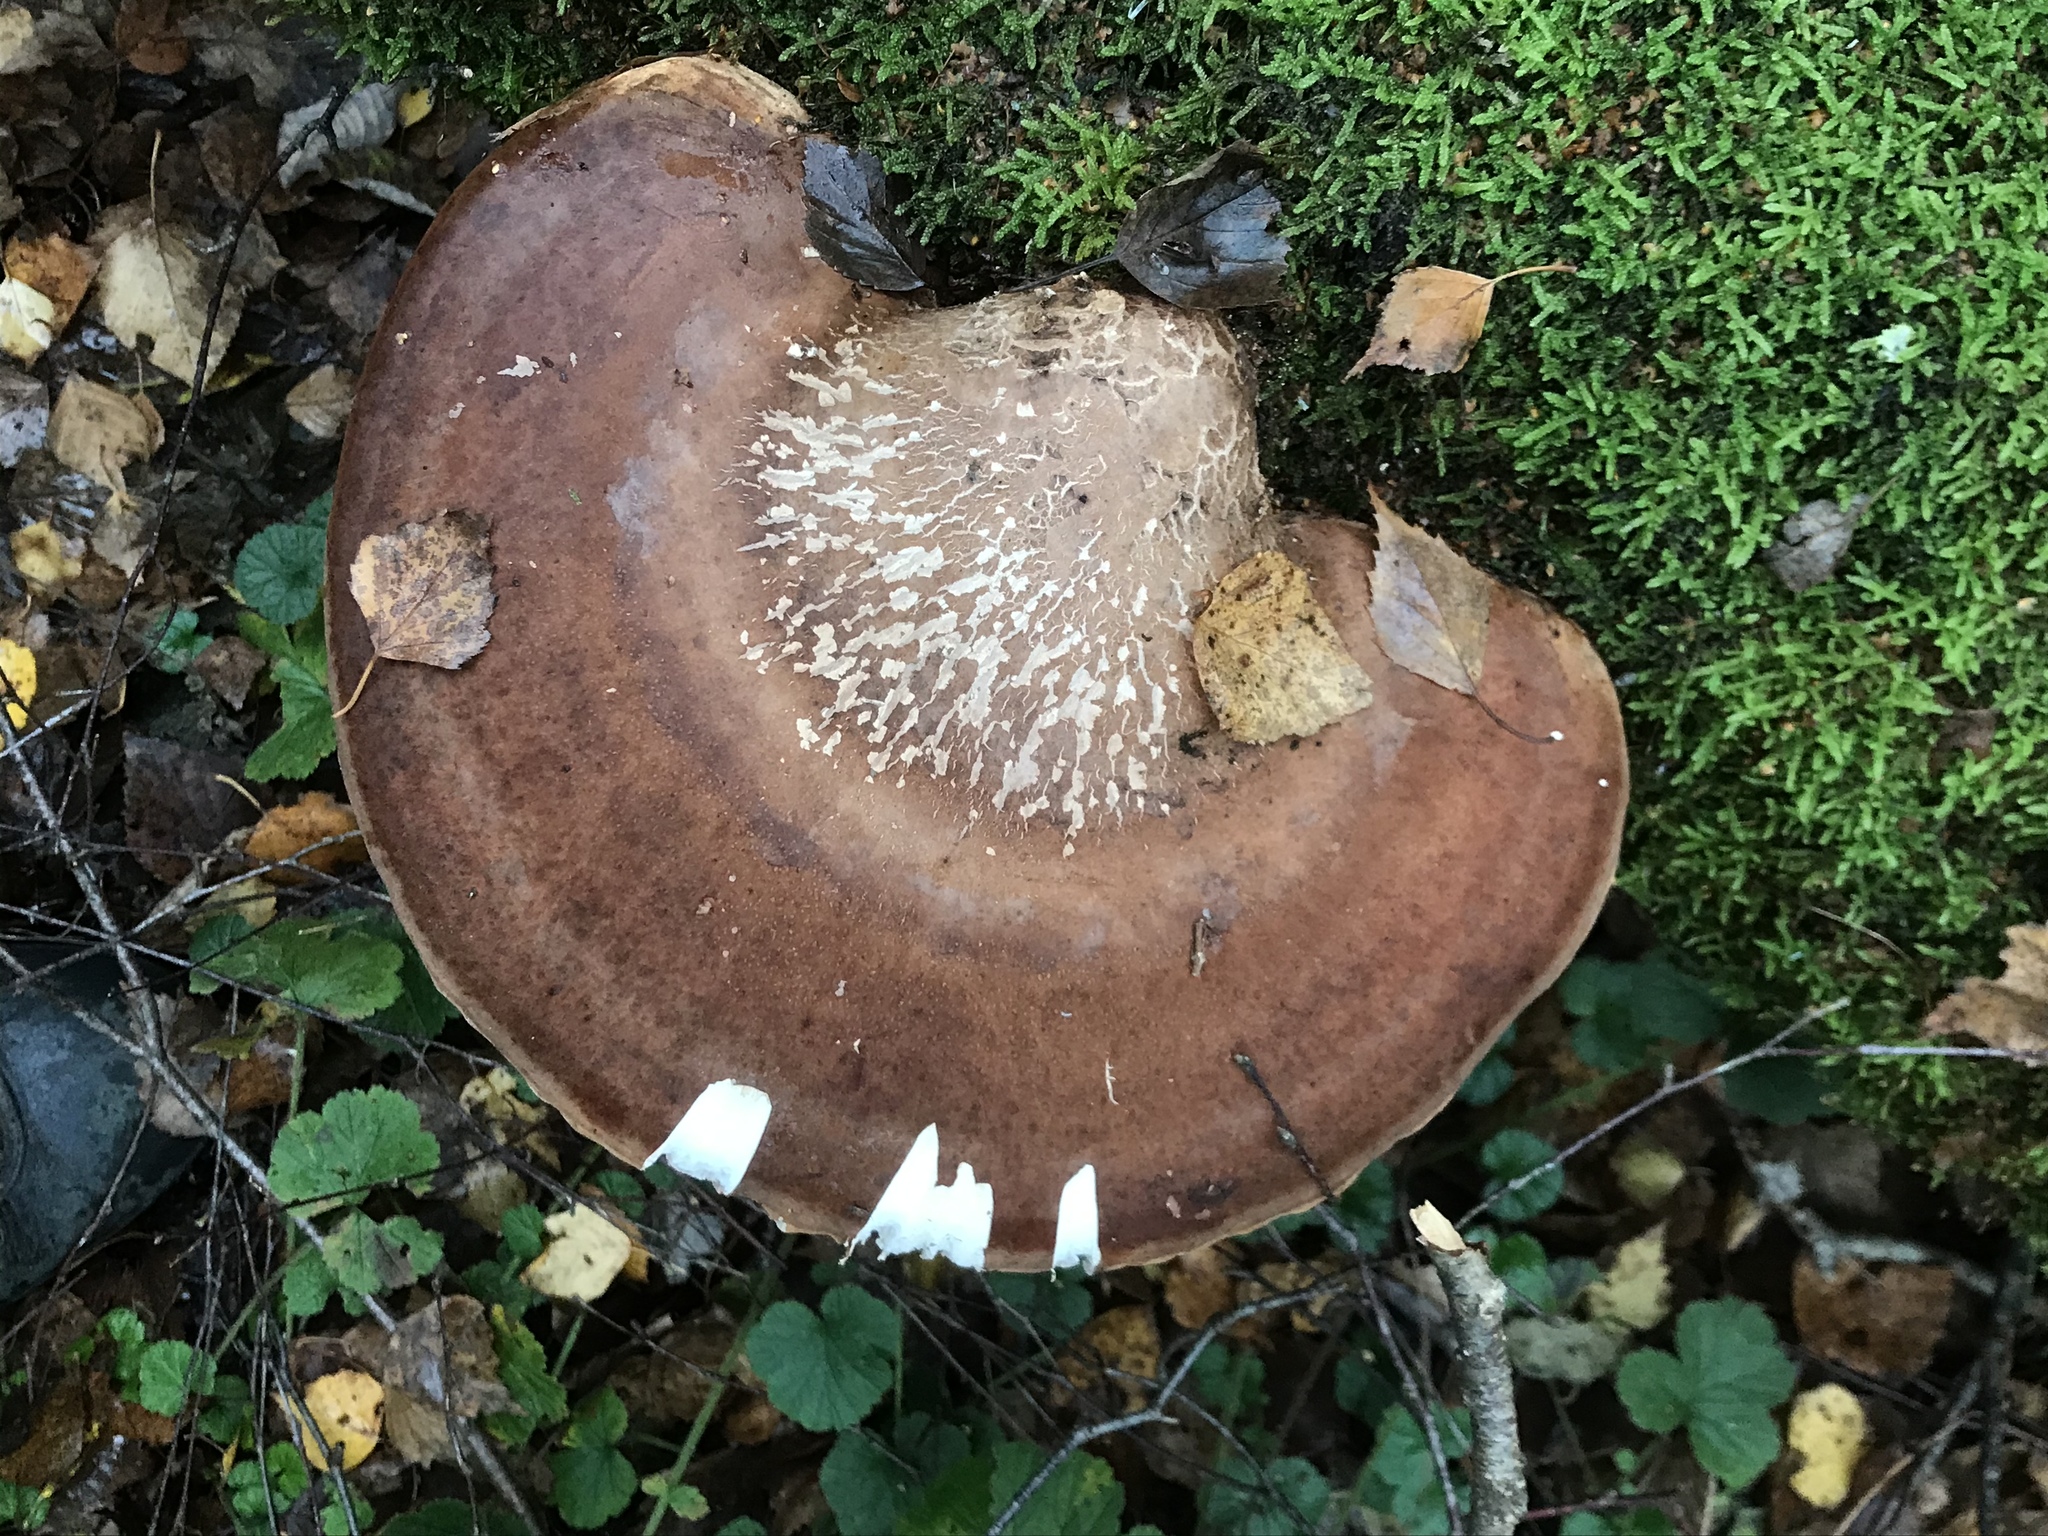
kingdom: Fungi
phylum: Basidiomycota
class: Agaricomycetes
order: Polyporales
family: Fomitopsidaceae
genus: Fomitopsis
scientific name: Fomitopsis betulina
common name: Birch polypore
